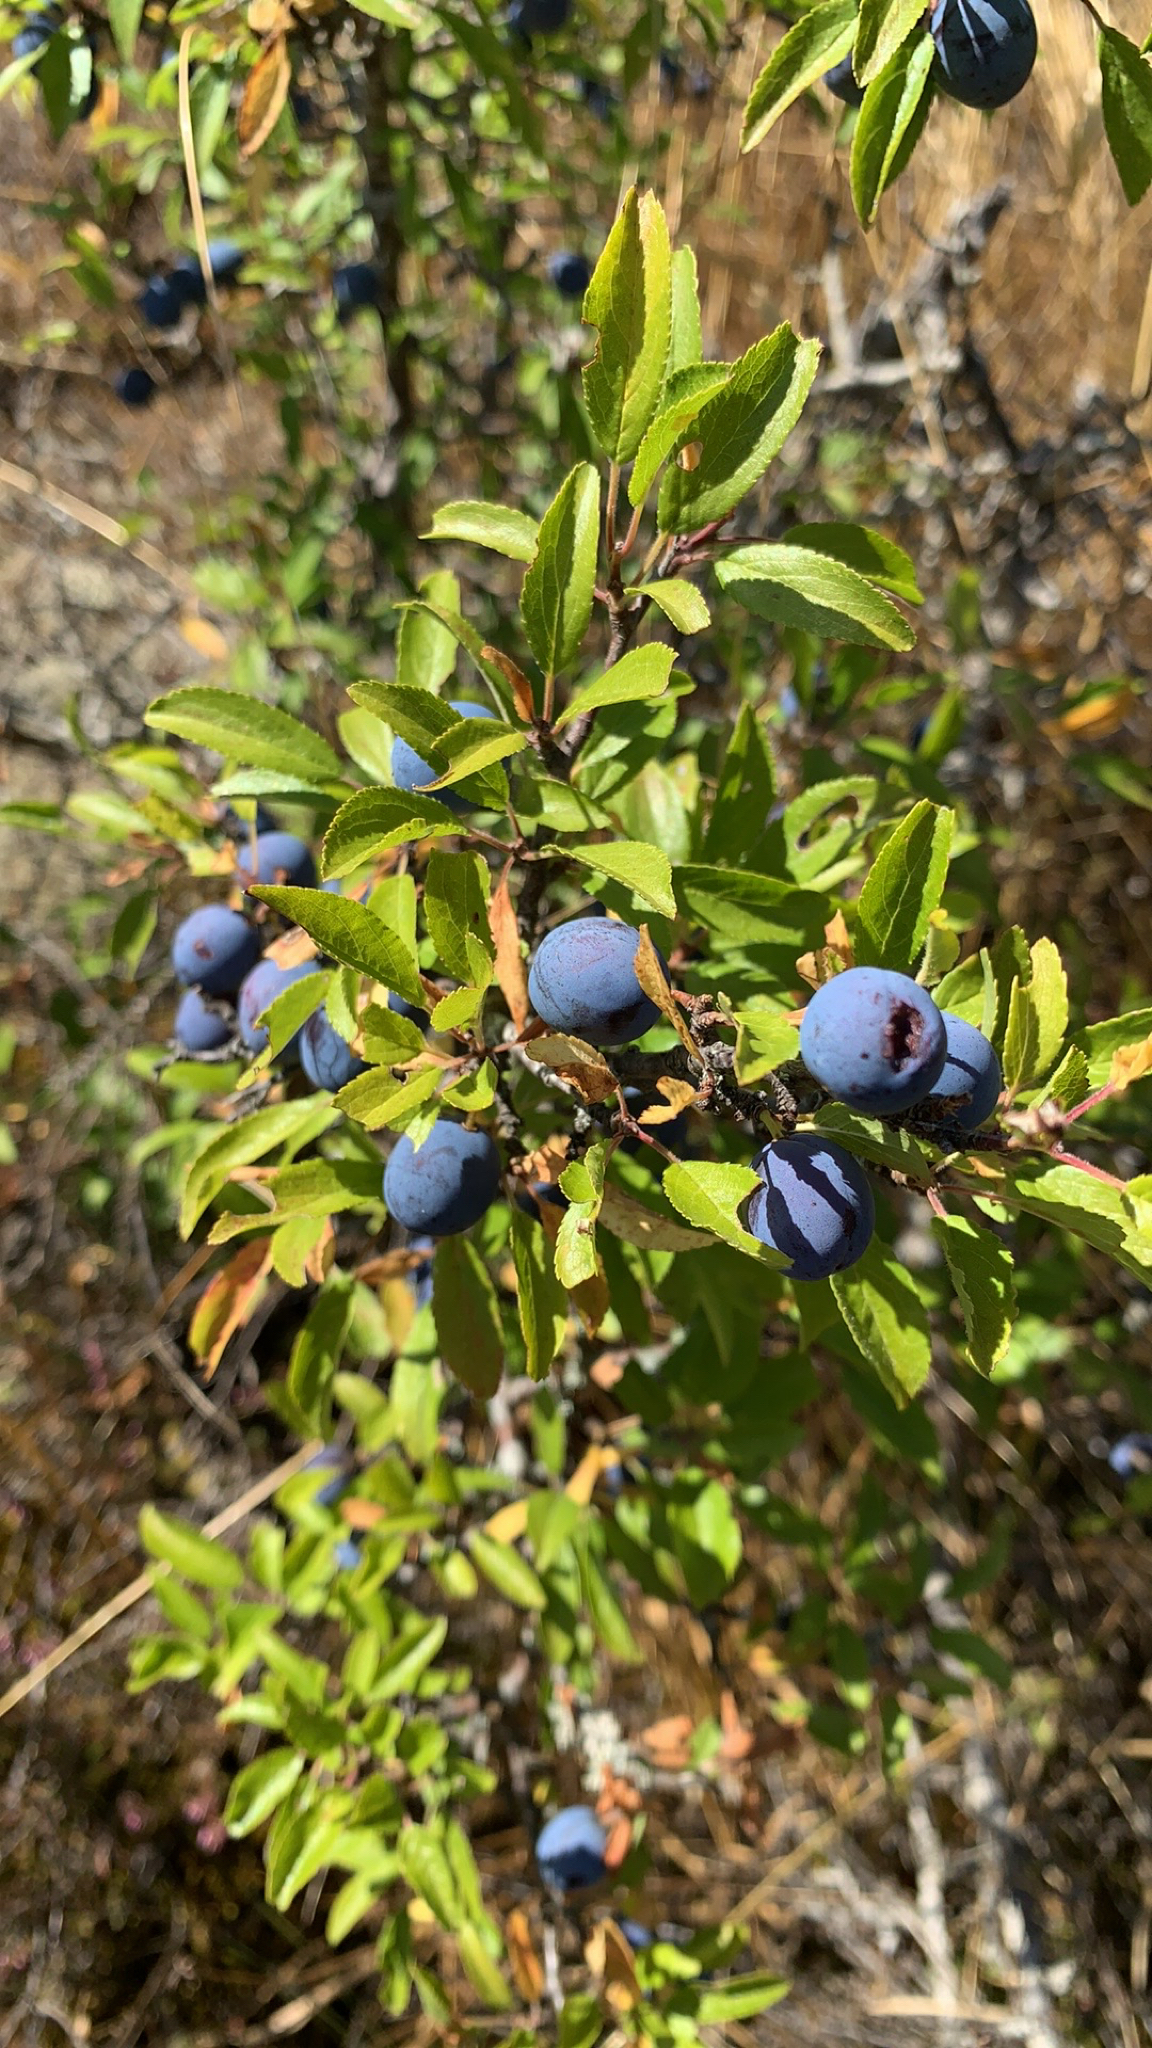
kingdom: Plantae
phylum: Tracheophyta
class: Magnoliopsida
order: Rosales
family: Rosaceae
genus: Prunus
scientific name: Prunus spinosa
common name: Blackthorn
